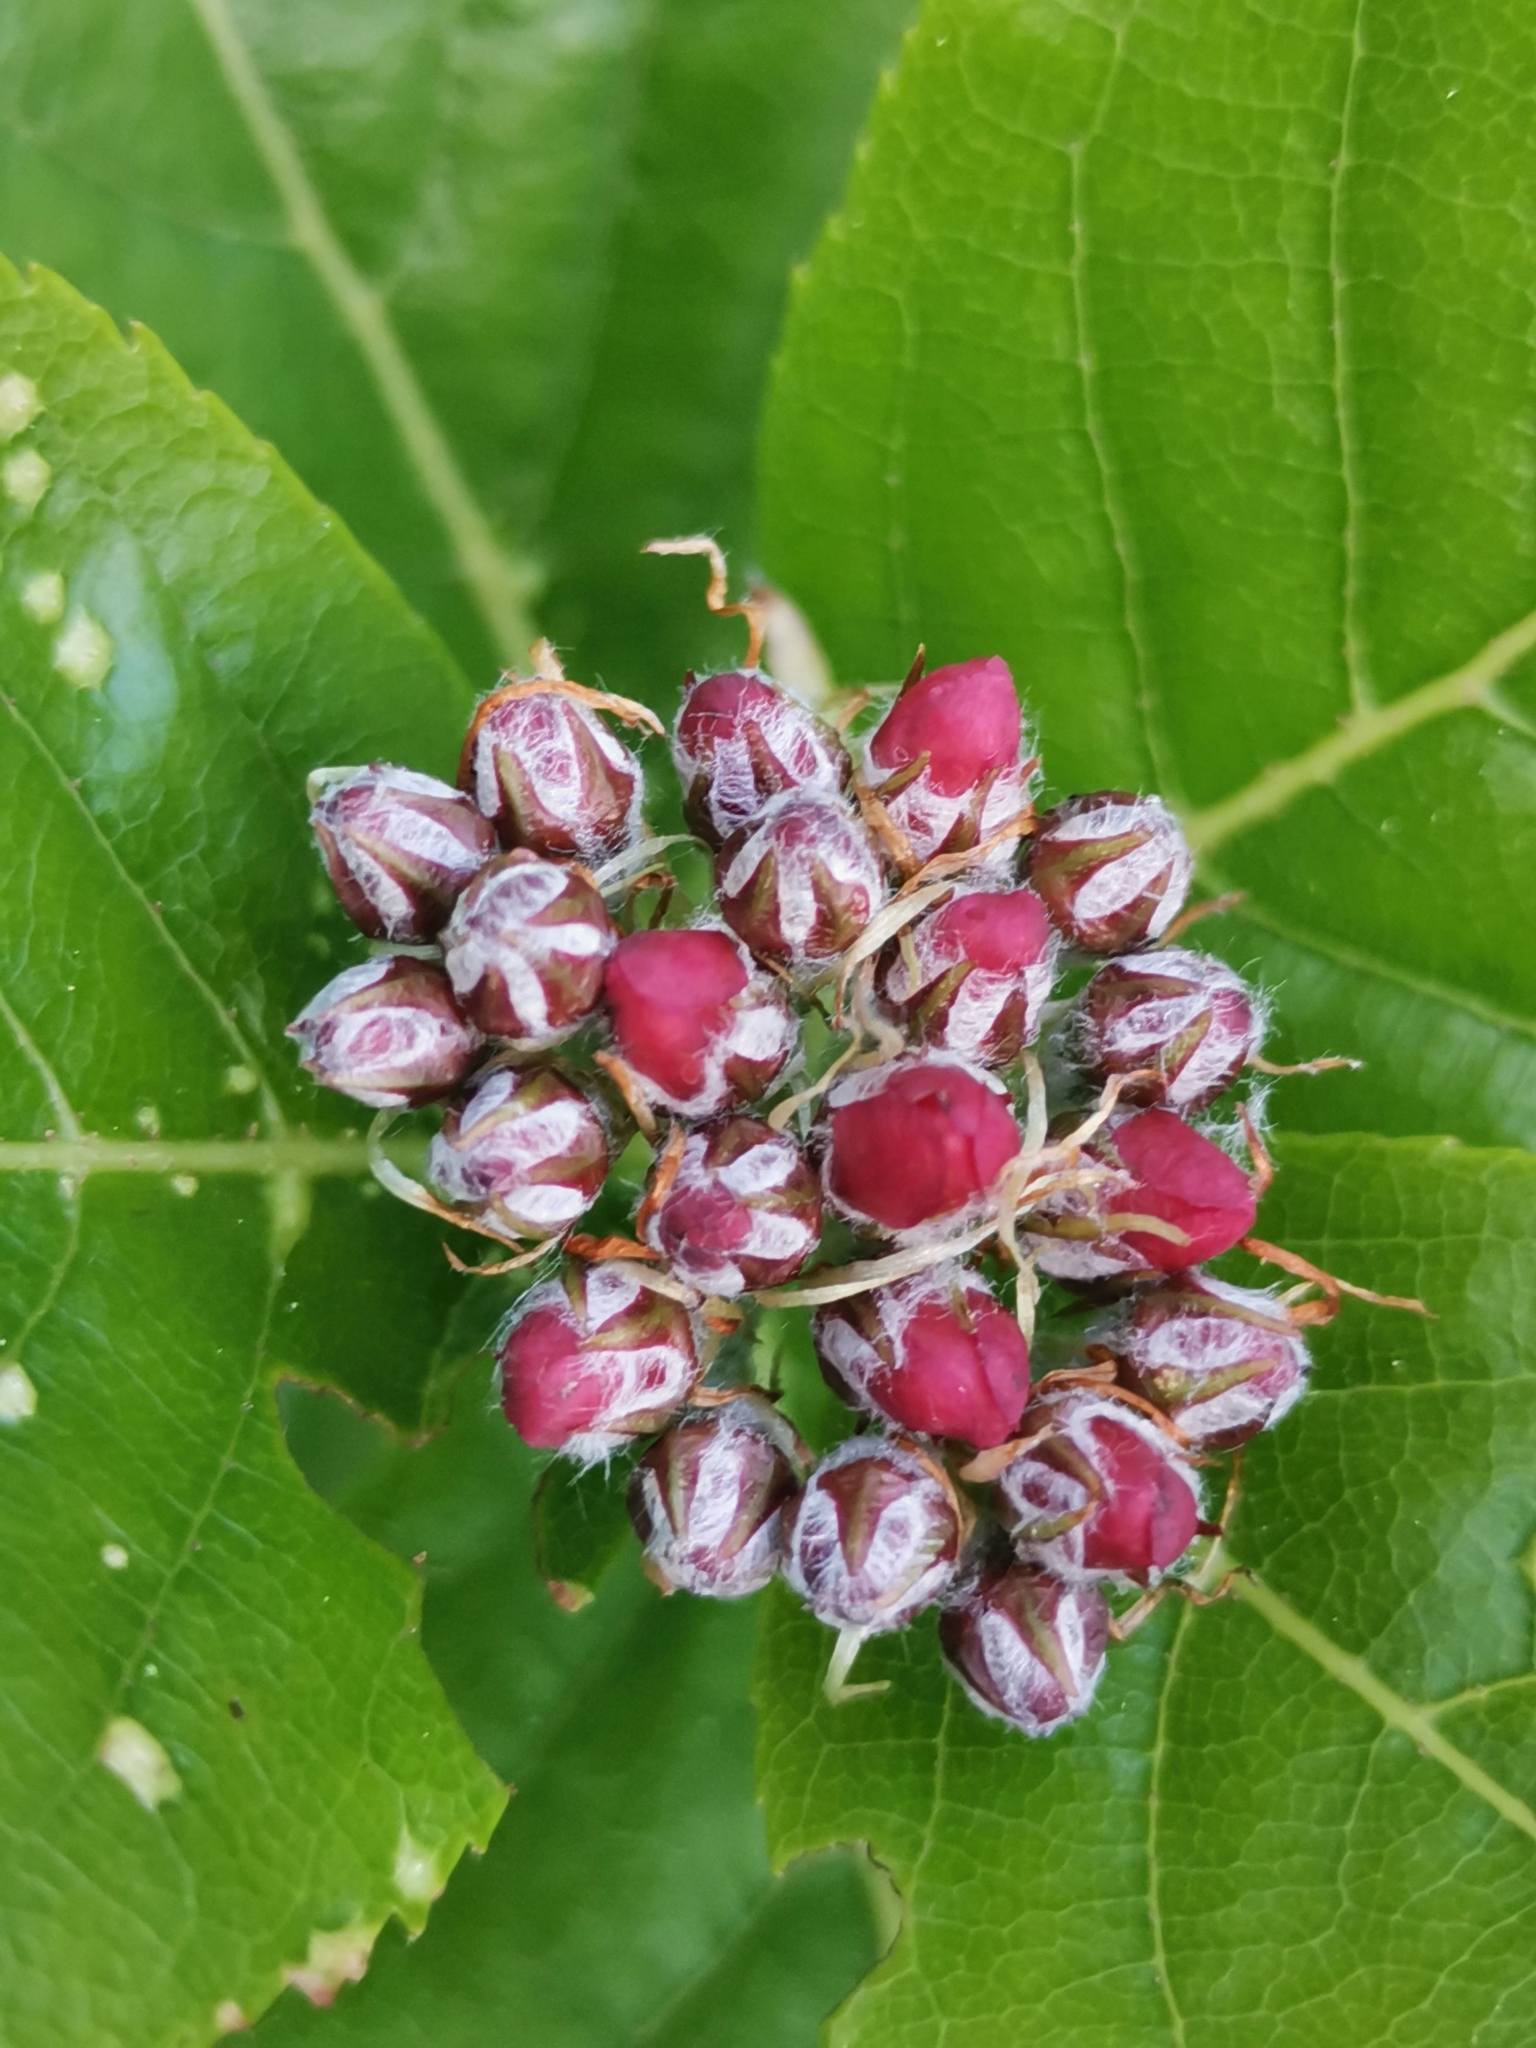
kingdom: Plantae
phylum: Tracheophyta
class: Magnoliopsida
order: Rosales
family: Rosaceae
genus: Chamaemespilus
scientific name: Chamaemespilus alpina
